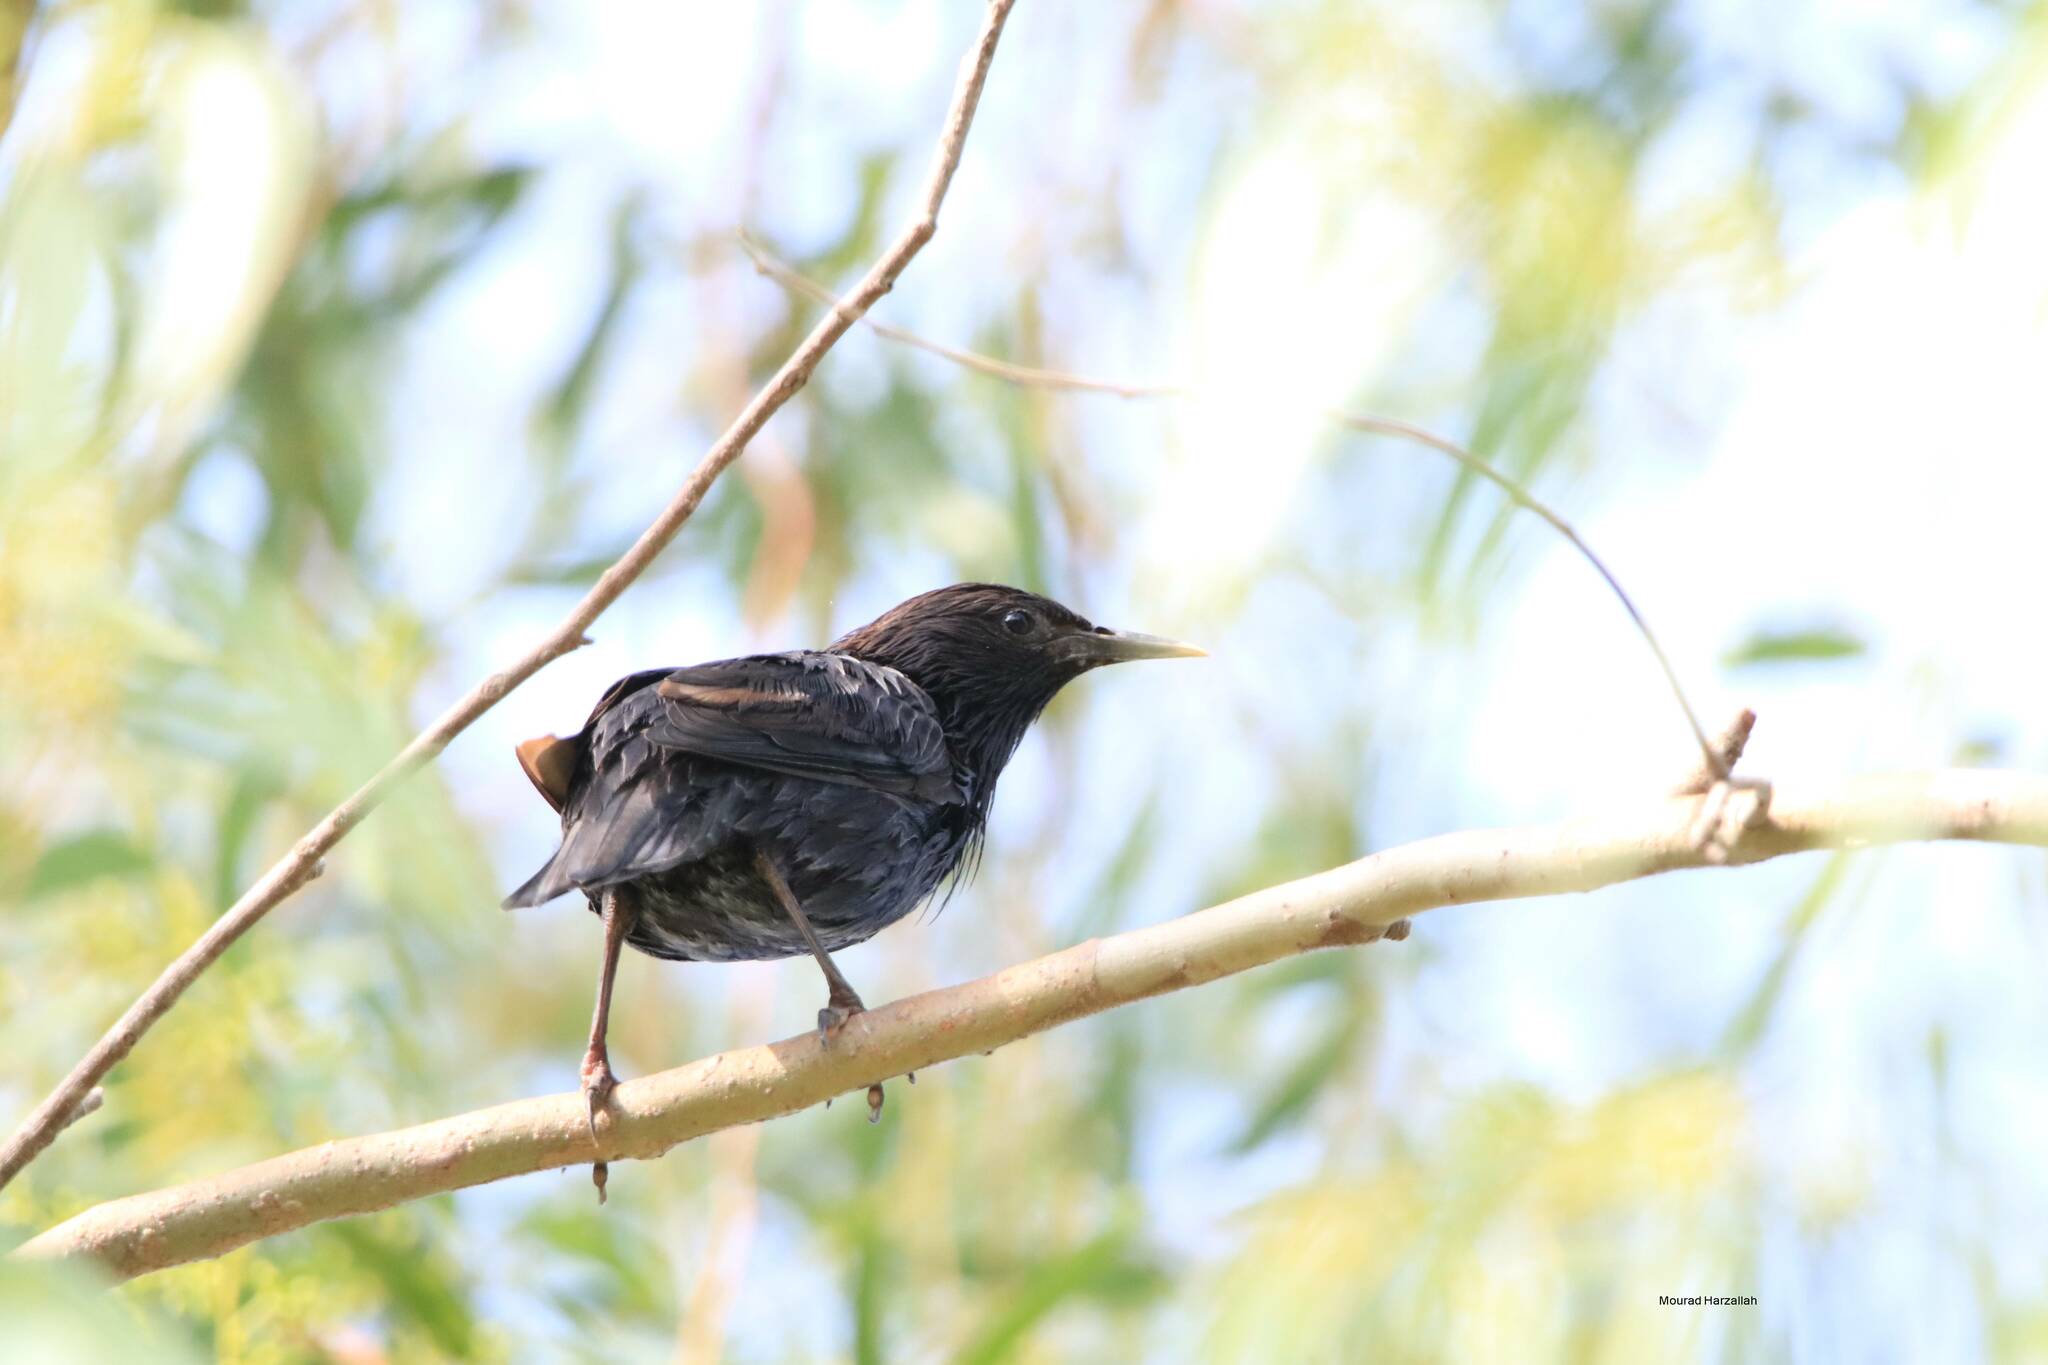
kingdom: Animalia
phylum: Chordata
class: Aves
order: Passeriformes
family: Sturnidae
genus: Sturnus
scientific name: Sturnus unicolor
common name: Spotless starling
